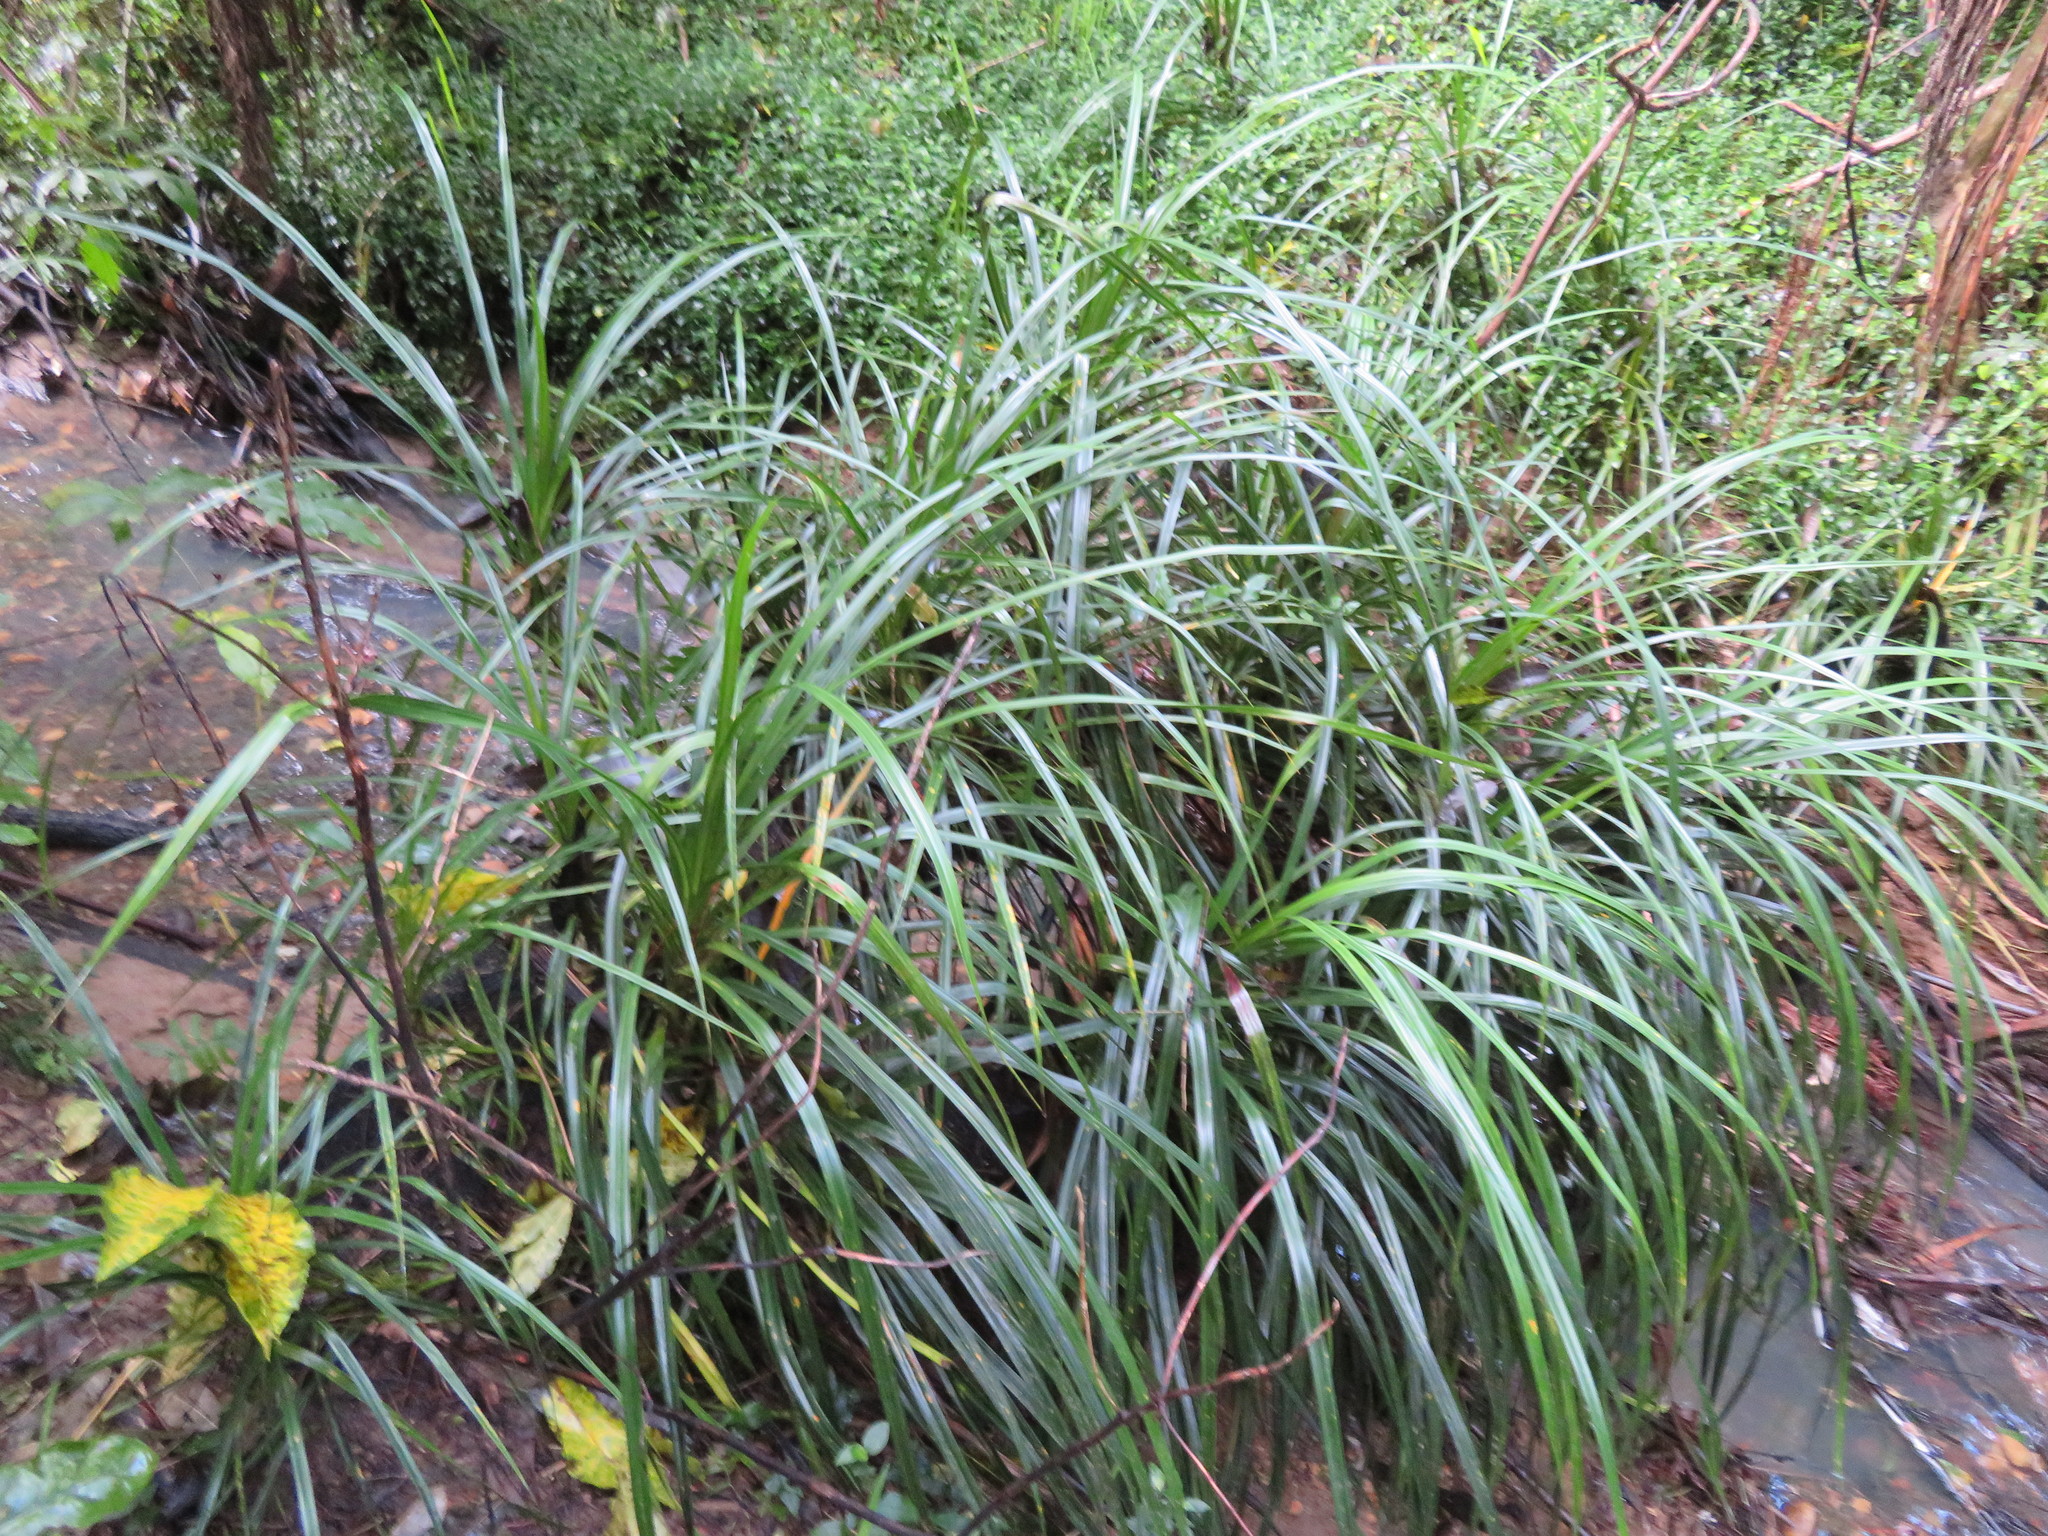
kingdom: Plantae
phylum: Tracheophyta
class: Liliopsida
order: Pandanales
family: Pandanaceae
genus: Freycinetia
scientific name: Freycinetia banksii
